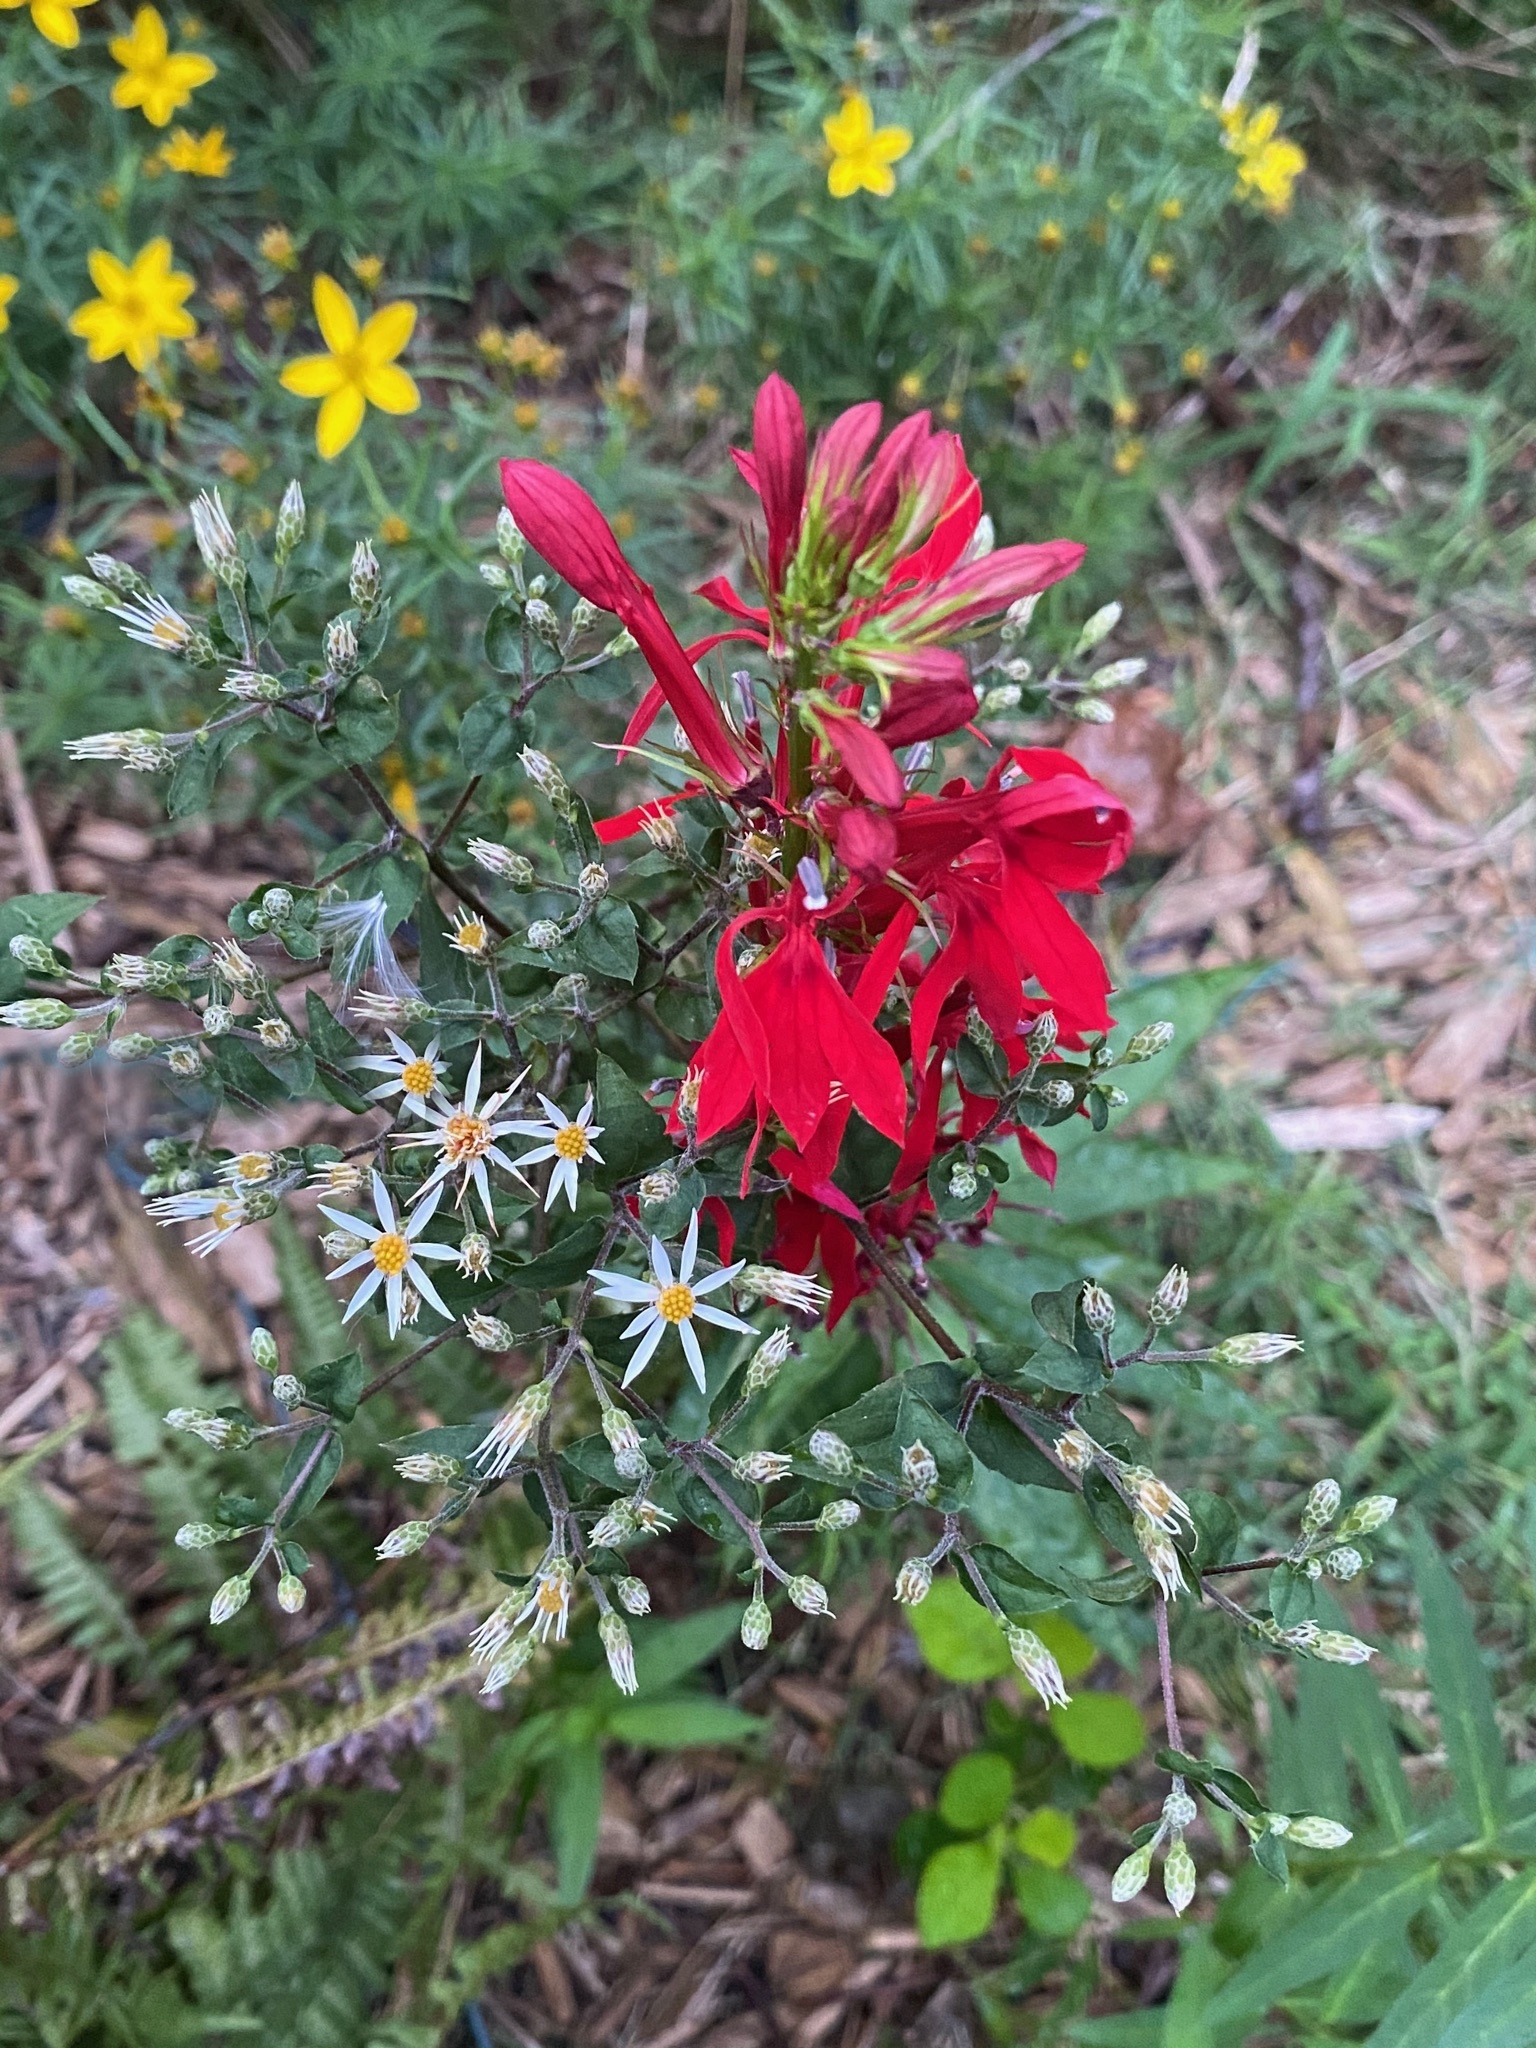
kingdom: Plantae
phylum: Tracheophyta
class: Magnoliopsida
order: Asterales
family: Campanulaceae
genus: Lobelia
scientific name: Lobelia cardinalis
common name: Cardinal flower
